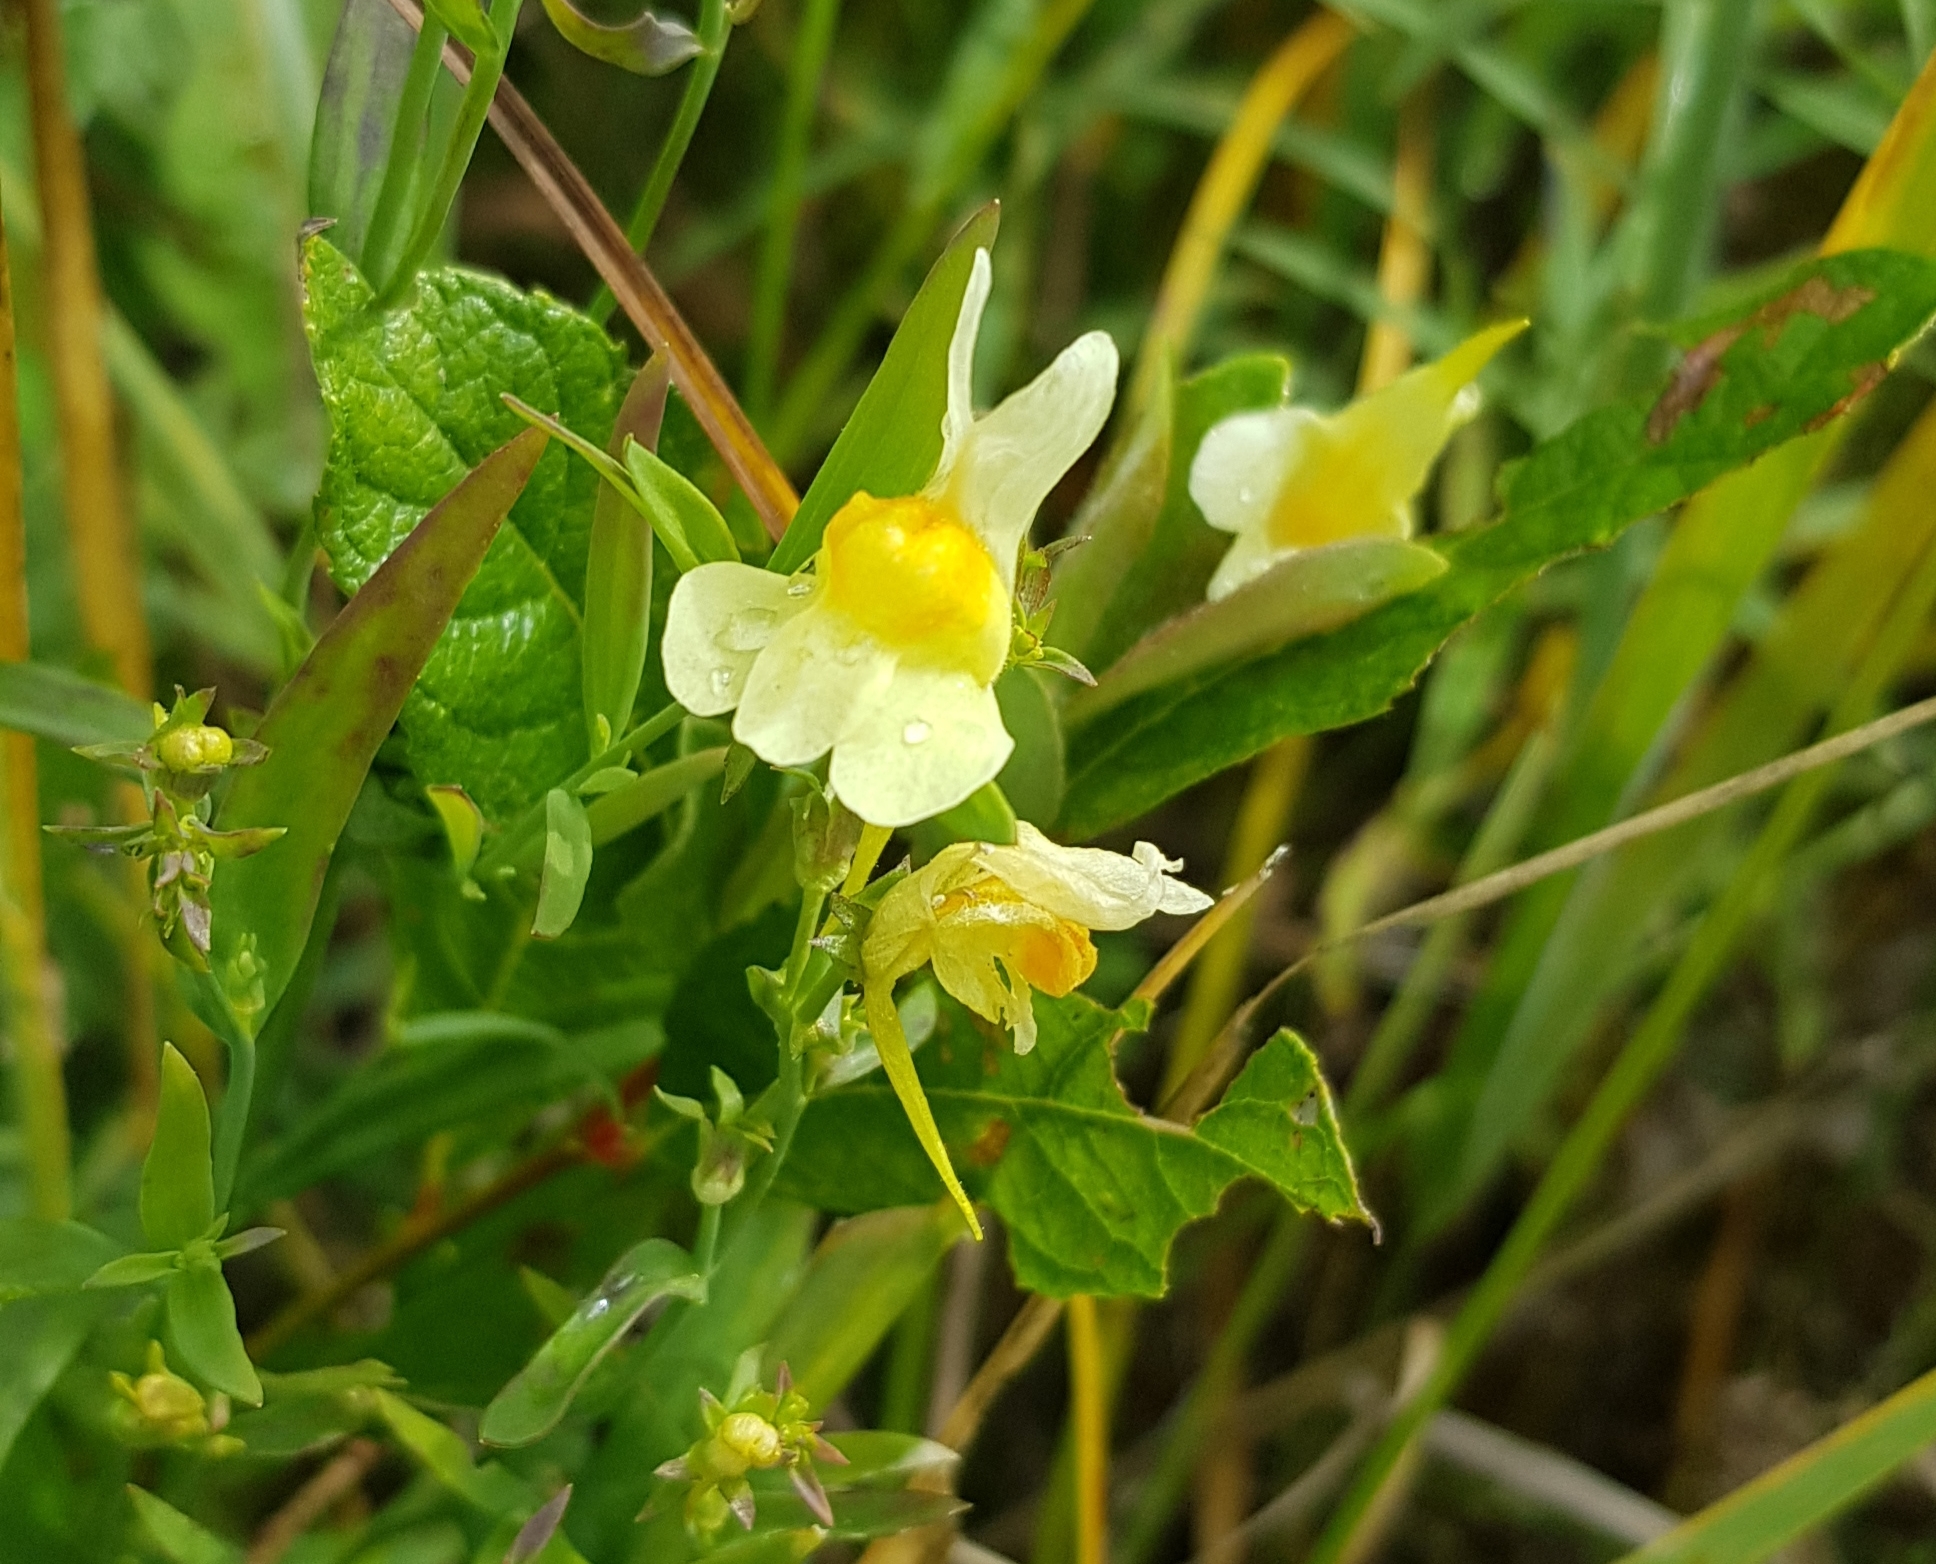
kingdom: Plantae
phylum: Tracheophyta
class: Magnoliopsida
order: Lamiales
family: Plantaginaceae
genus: Linaria
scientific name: Linaria buriatica
